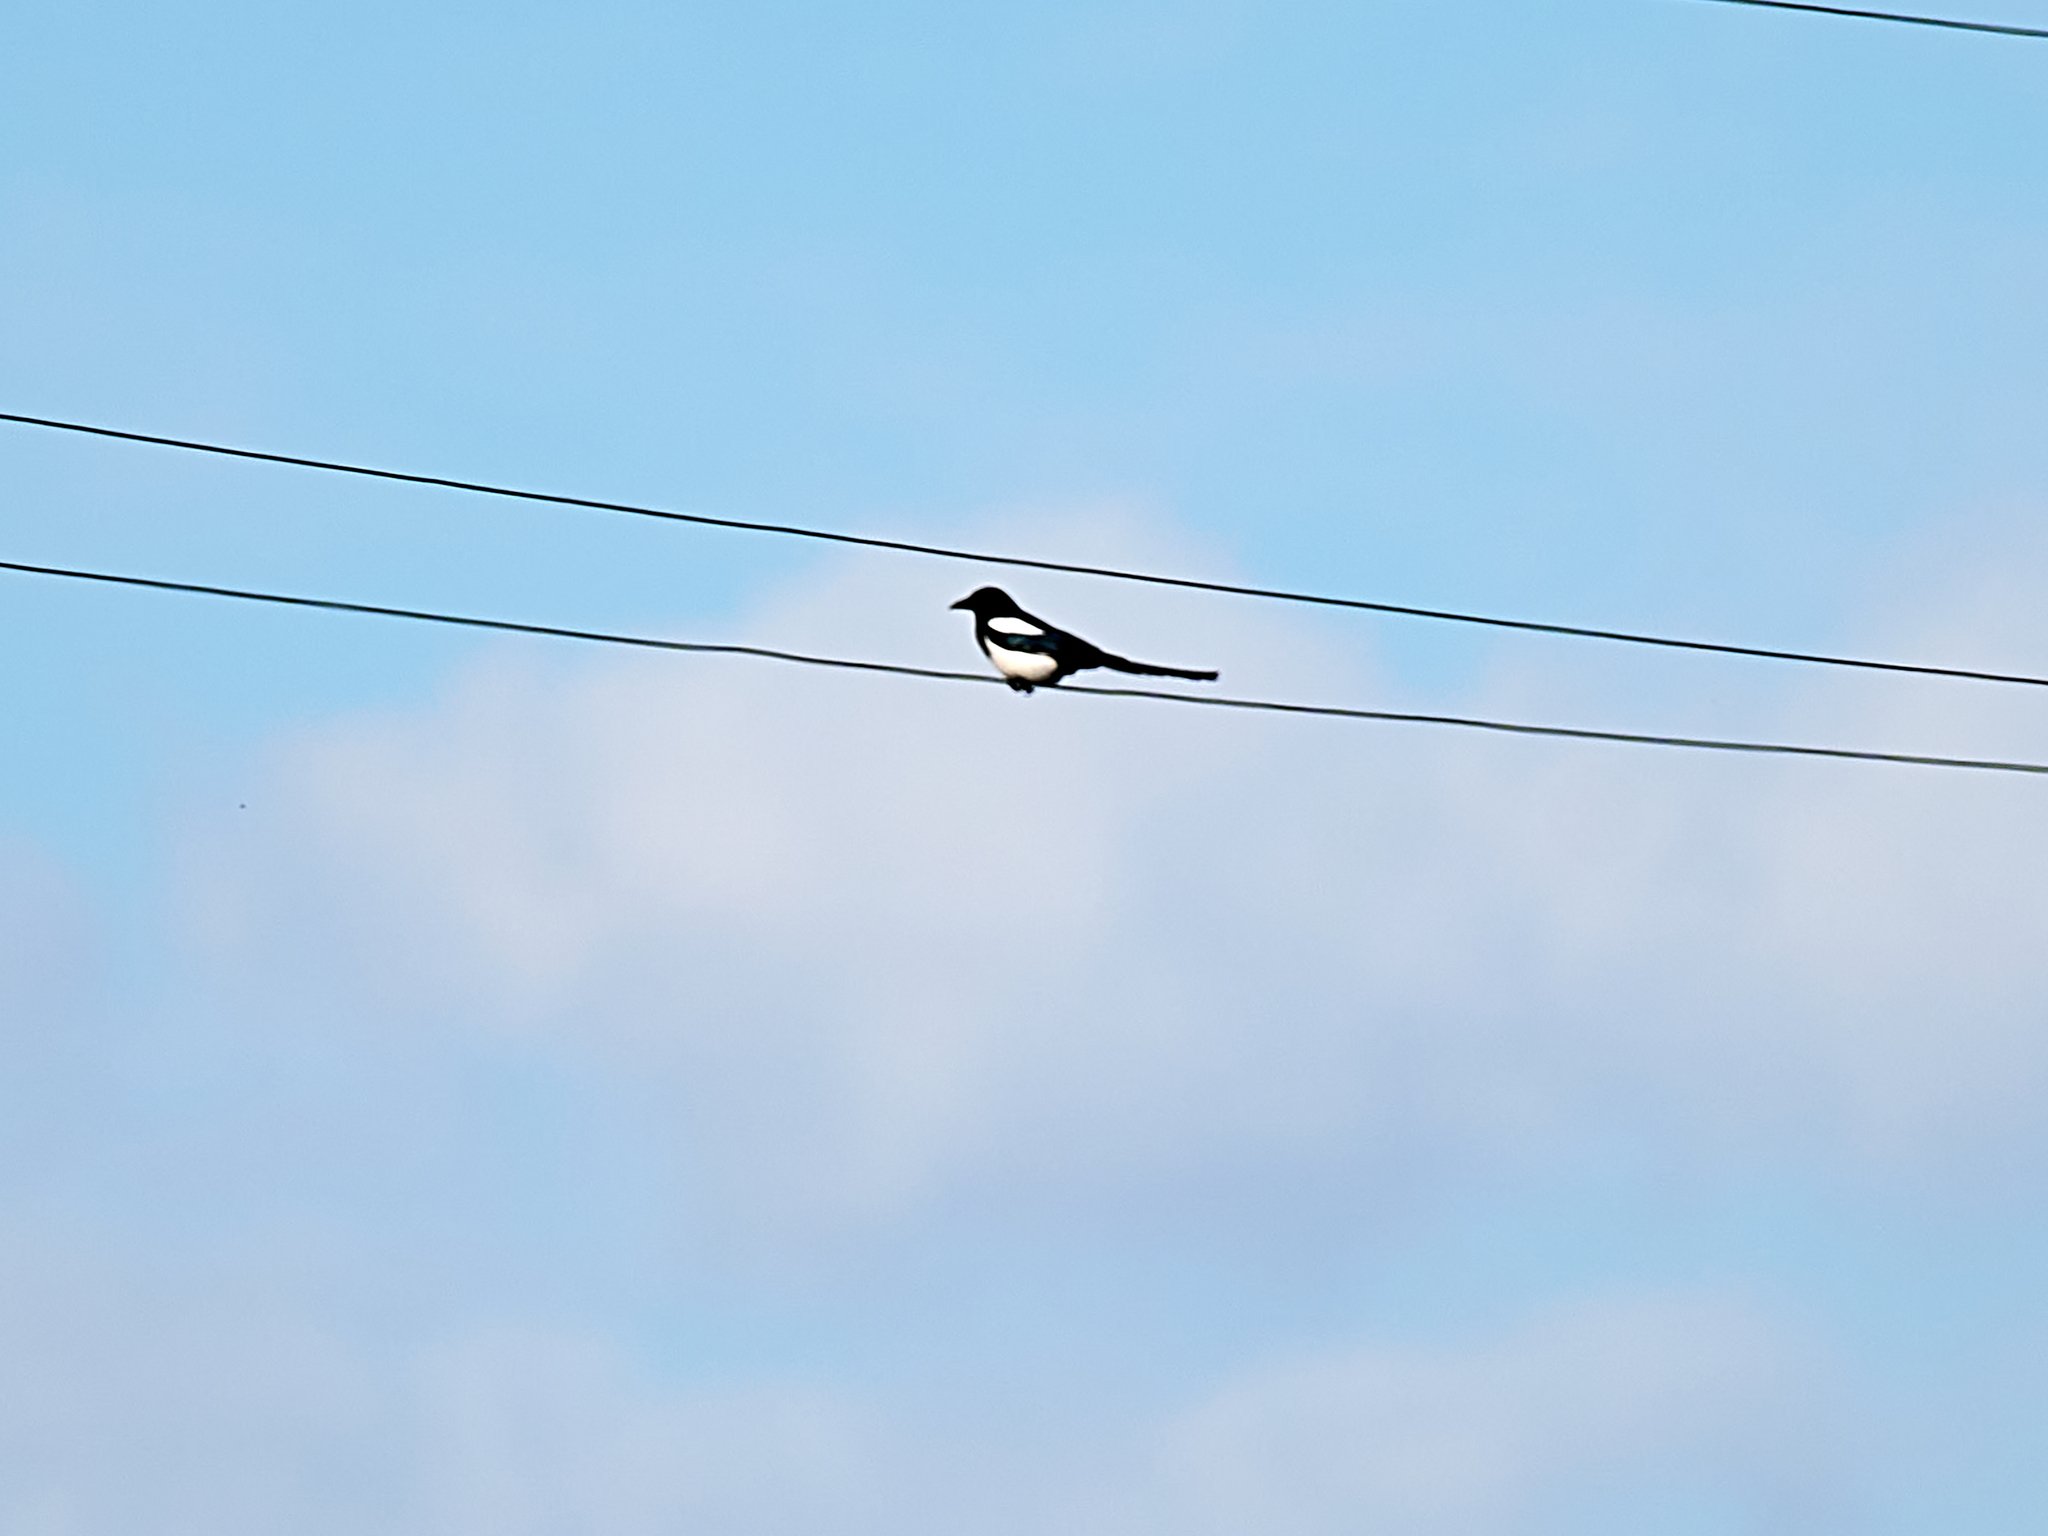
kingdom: Animalia
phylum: Chordata
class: Aves
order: Passeriformes
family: Corvidae
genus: Pica
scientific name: Pica pica
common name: Eurasian magpie
